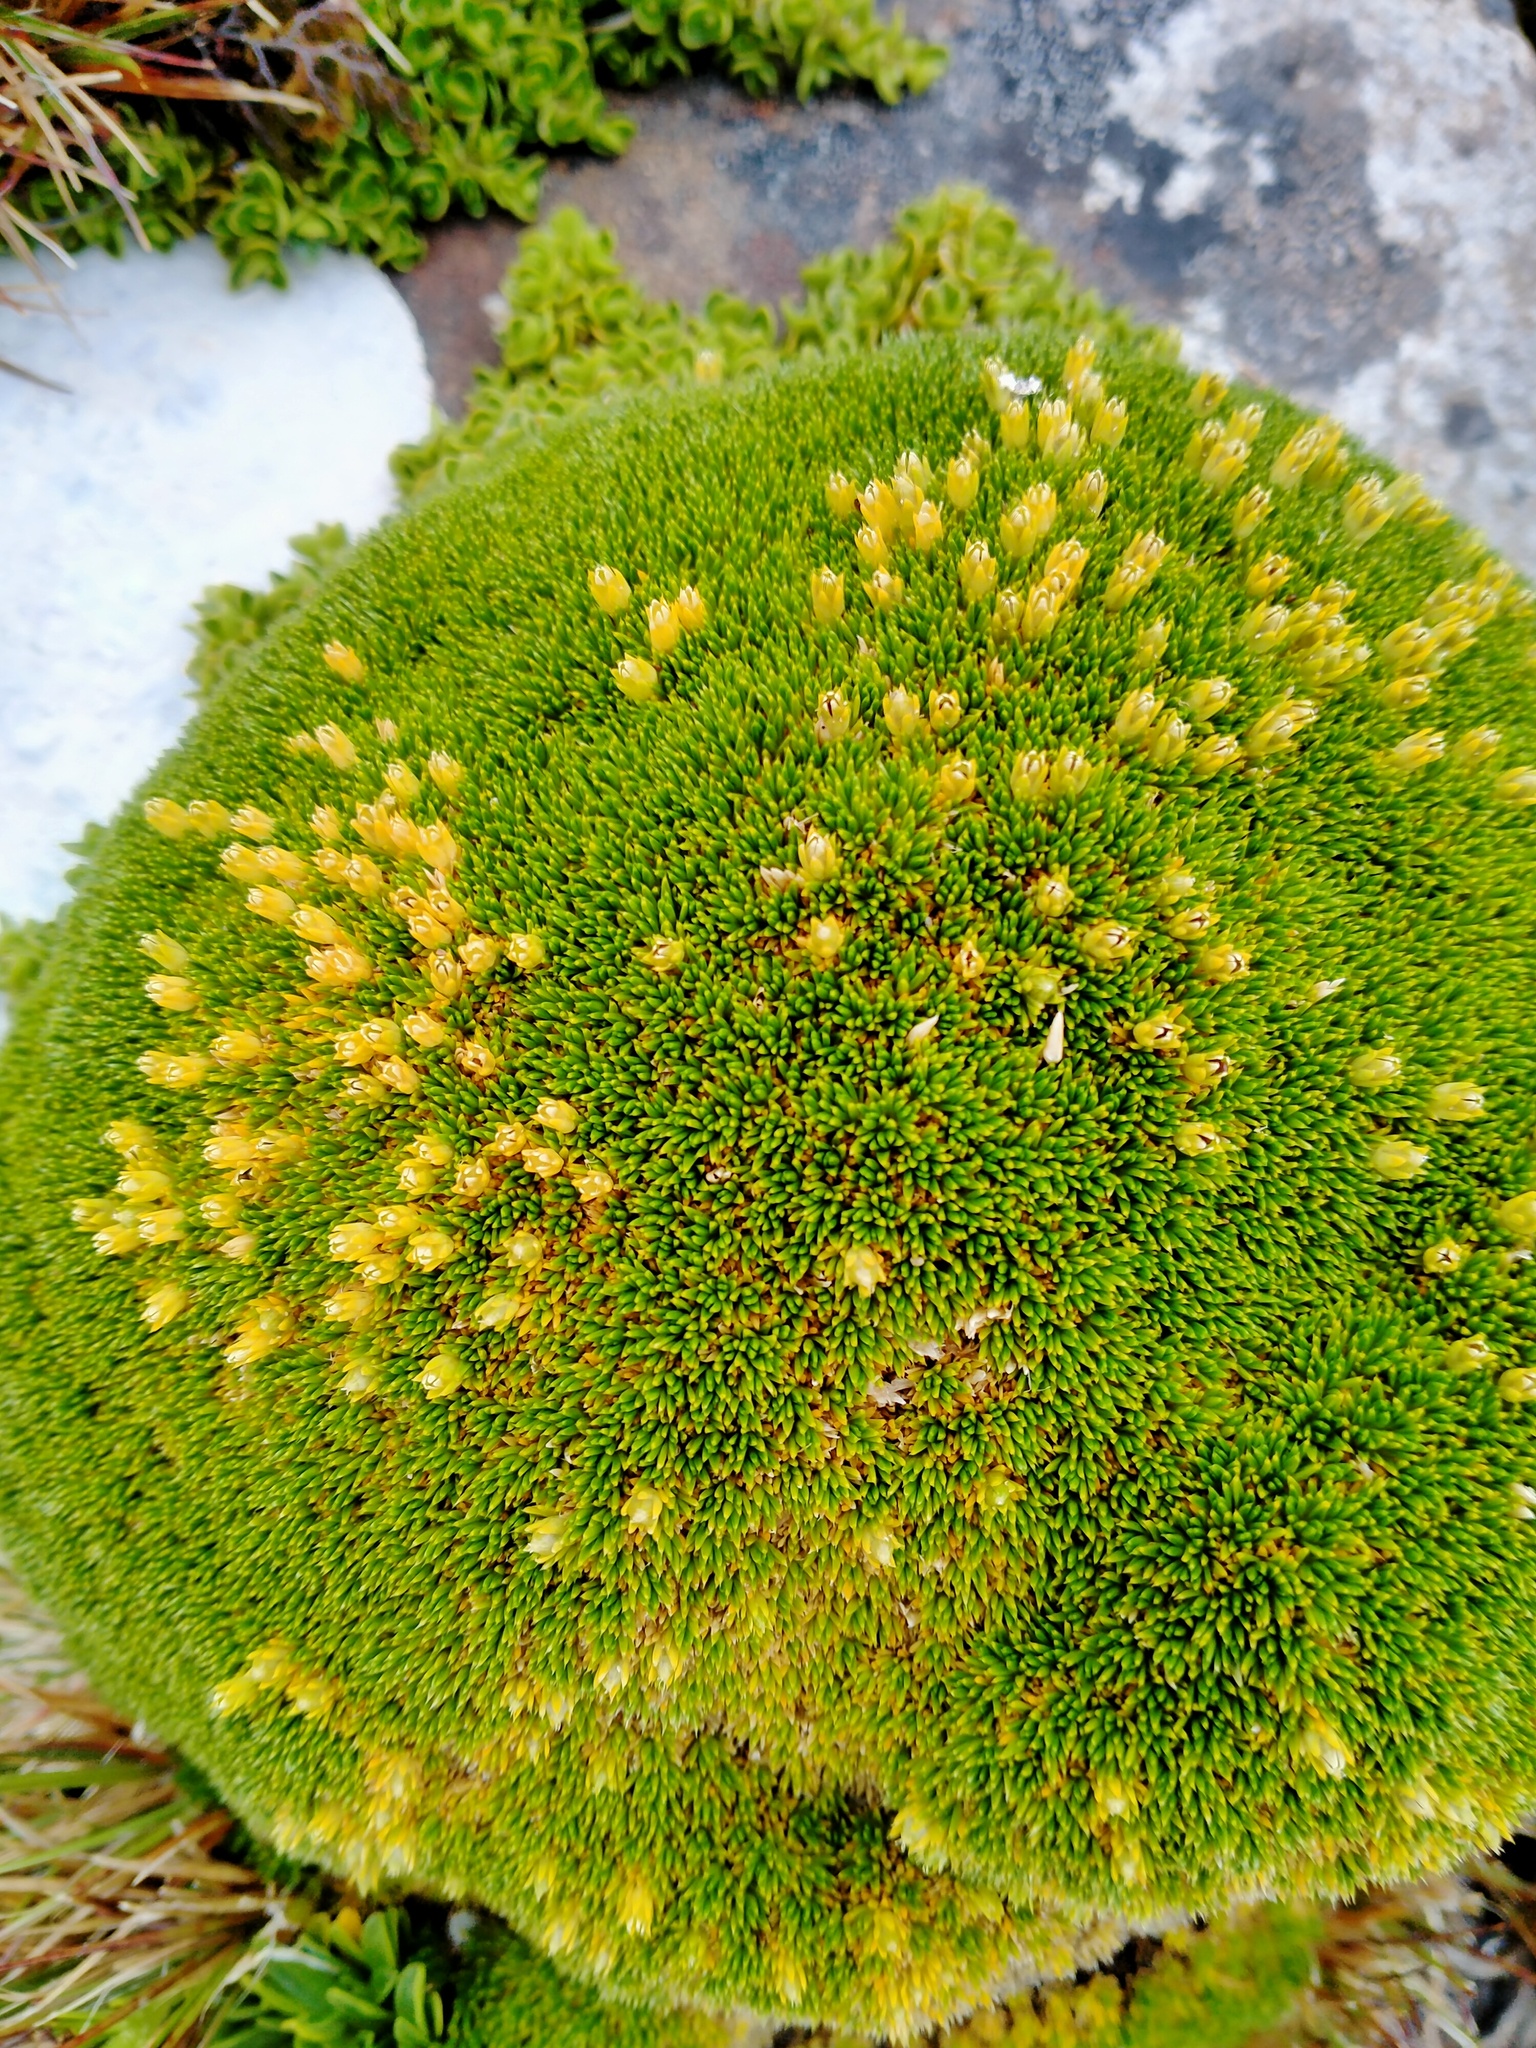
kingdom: Plantae
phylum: Tracheophyta
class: Magnoliopsida
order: Asterales
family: Stylidiaceae
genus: Phyllachne
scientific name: Phyllachne colensoi
